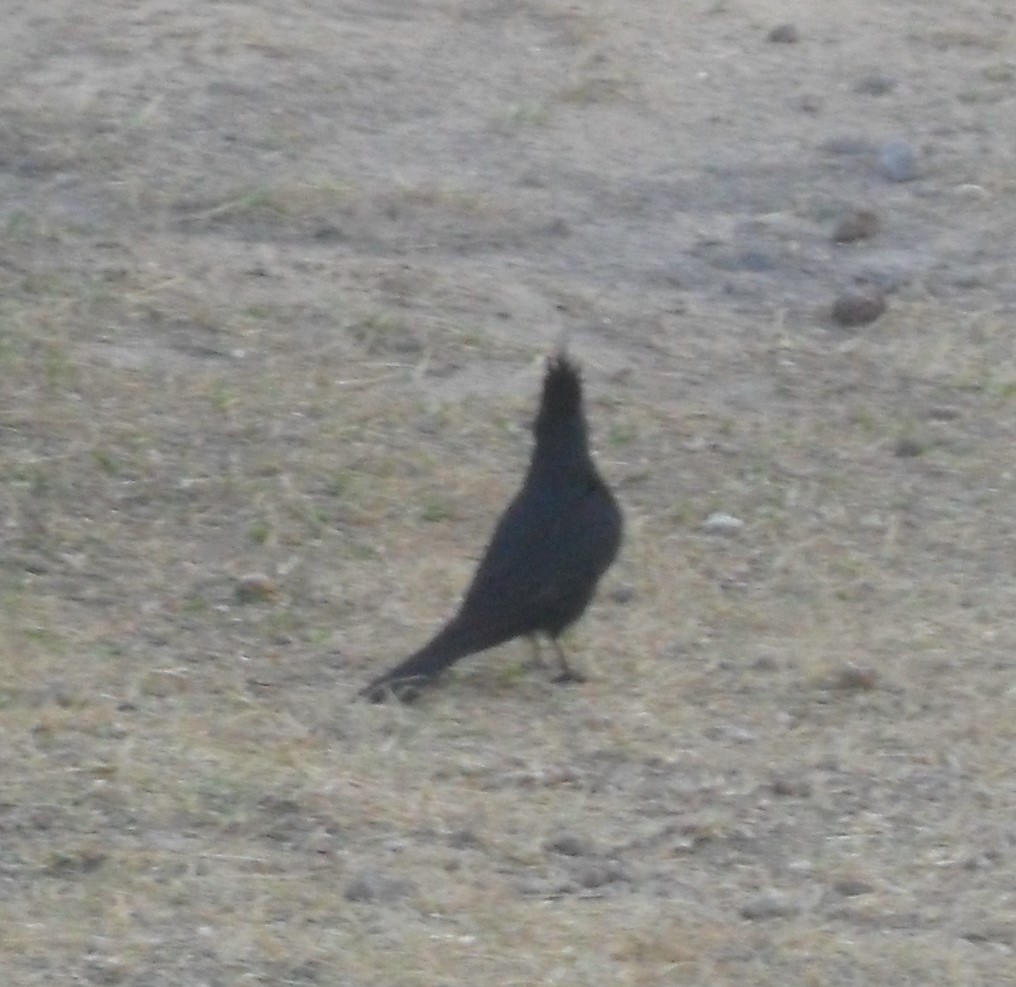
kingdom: Animalia
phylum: Chordata
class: Aves
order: Passeriformes
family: Tyrannidae
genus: Knipolegus
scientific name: Knipolegus lophotes
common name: Crested black tyrant
